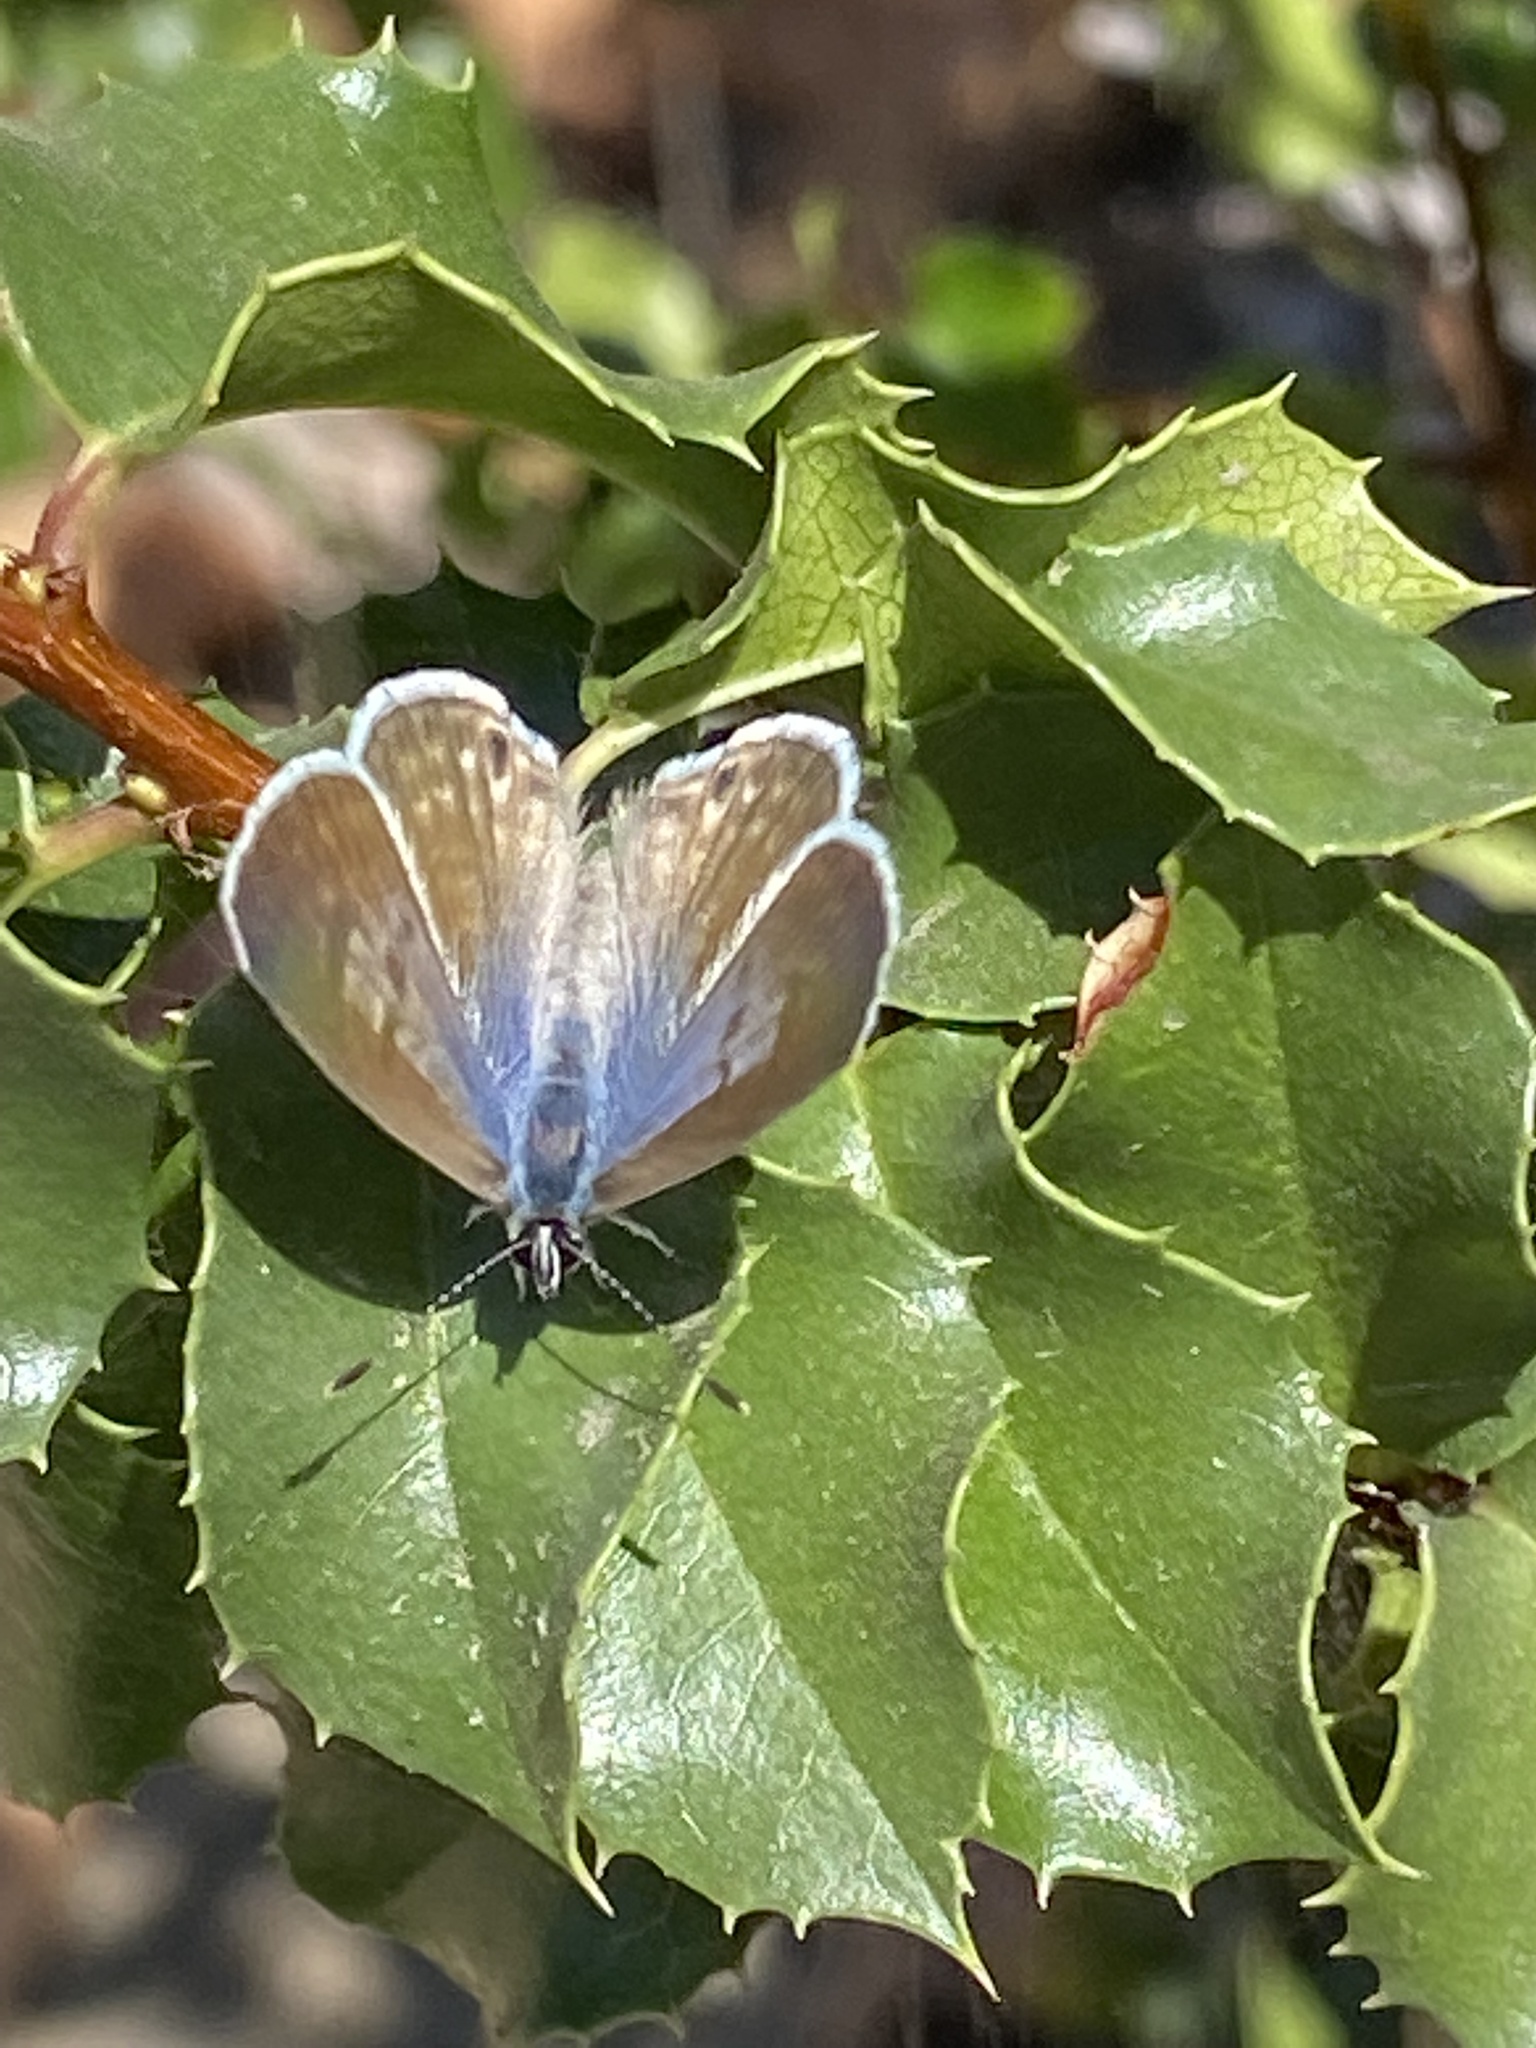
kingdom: Animalia
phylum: Arthropoda
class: Insecta
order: Lepidoptera
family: Lycaenidae
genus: Leptotes
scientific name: Leptotes marina
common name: Marine blue
